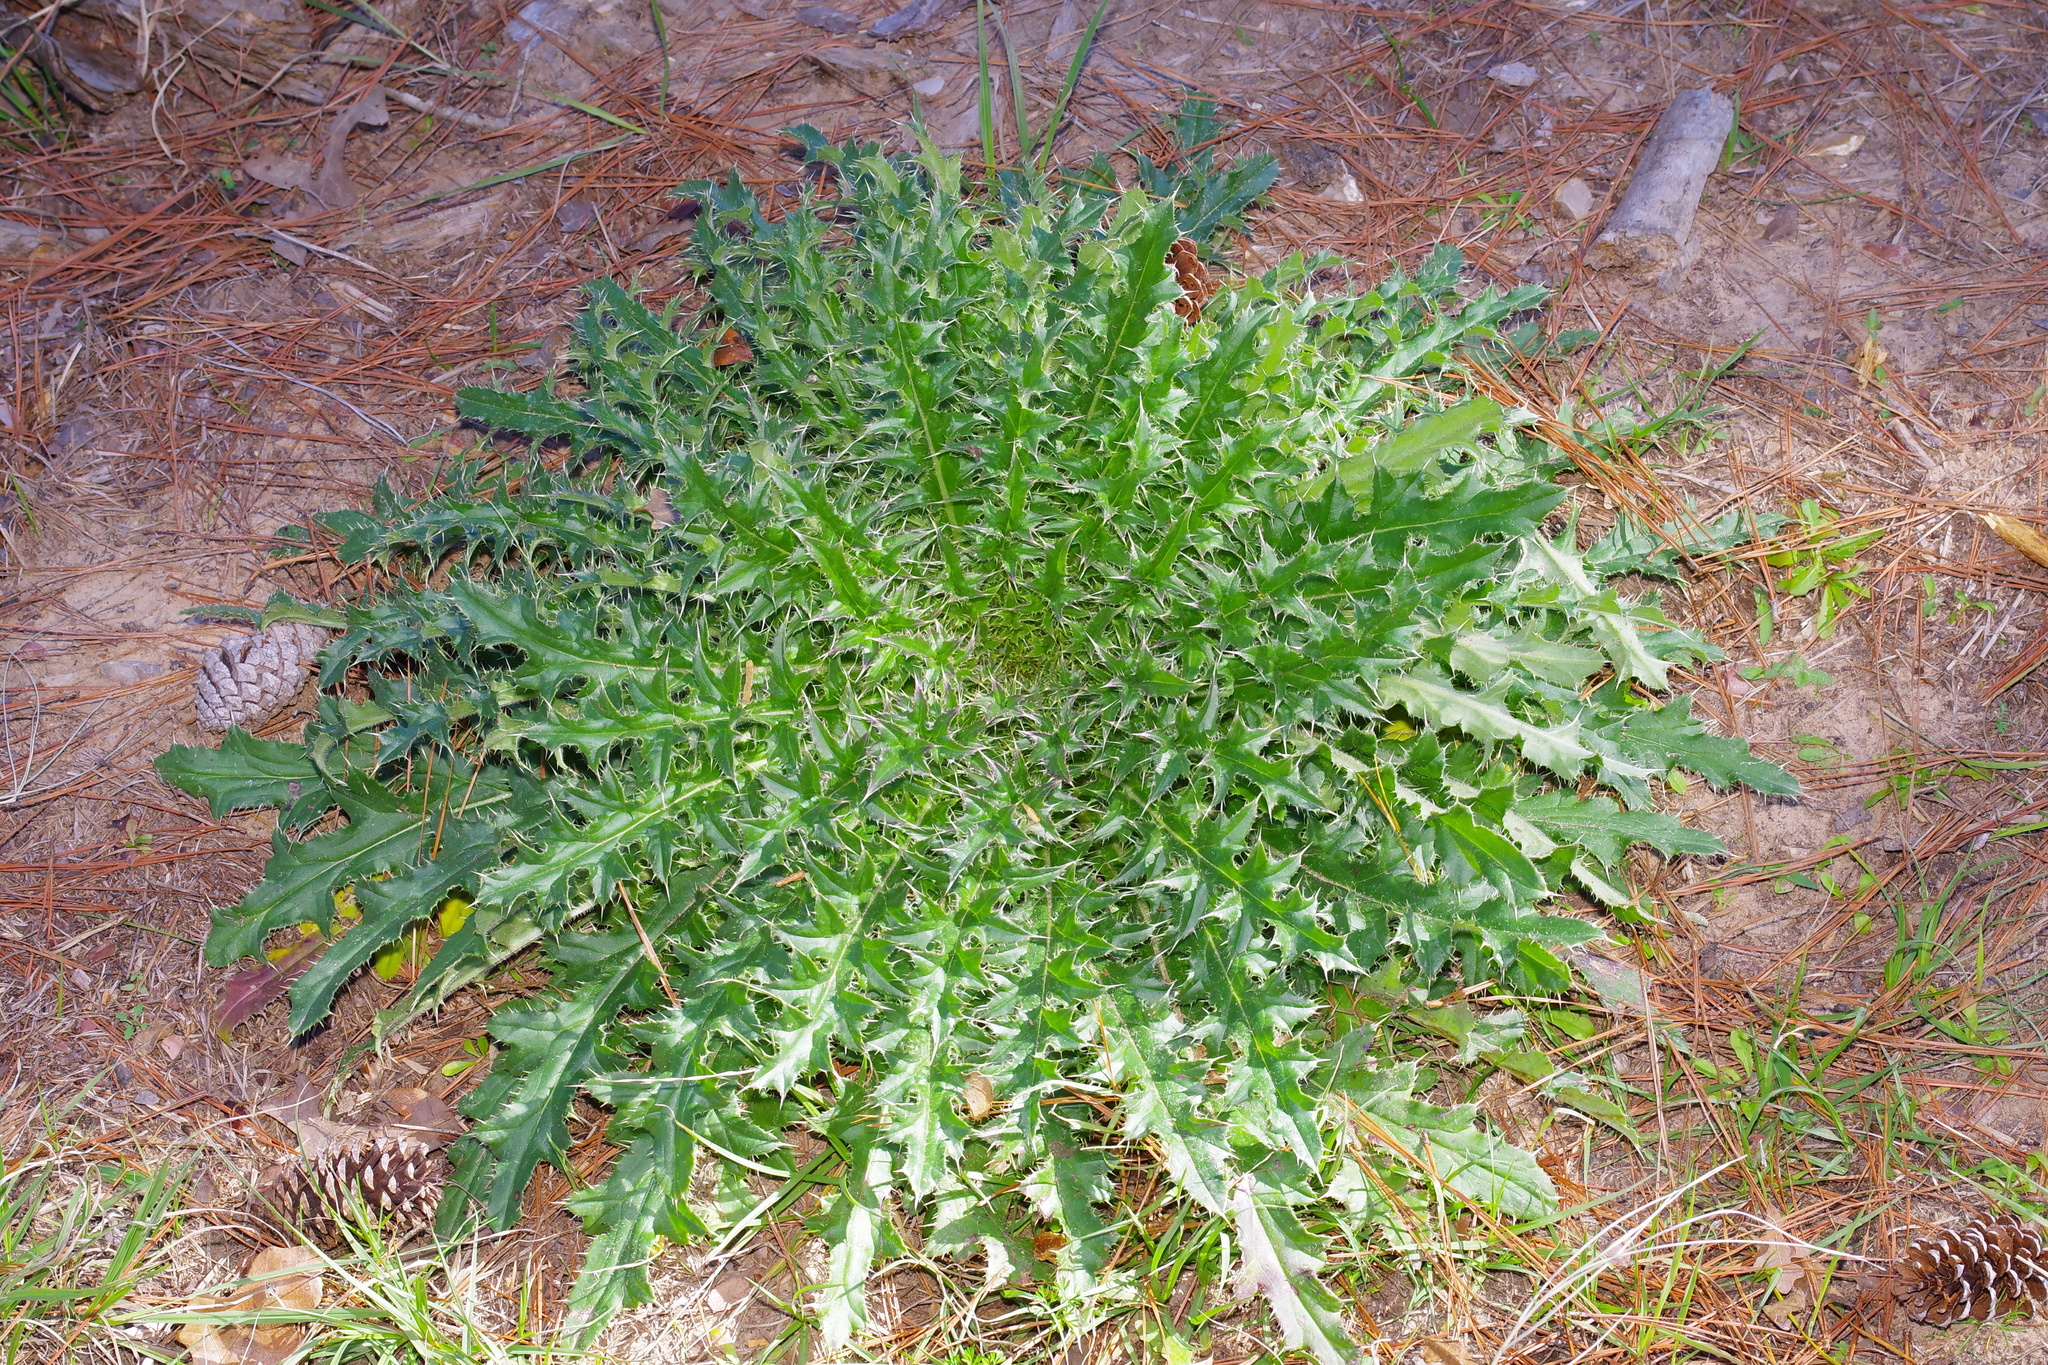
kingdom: Plantae
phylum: Tracheophyta
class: Magnoliopsida
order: Asterales
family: Asteraceae
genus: Cirsium
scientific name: Cirsium horridulum
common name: Bristly thistle
